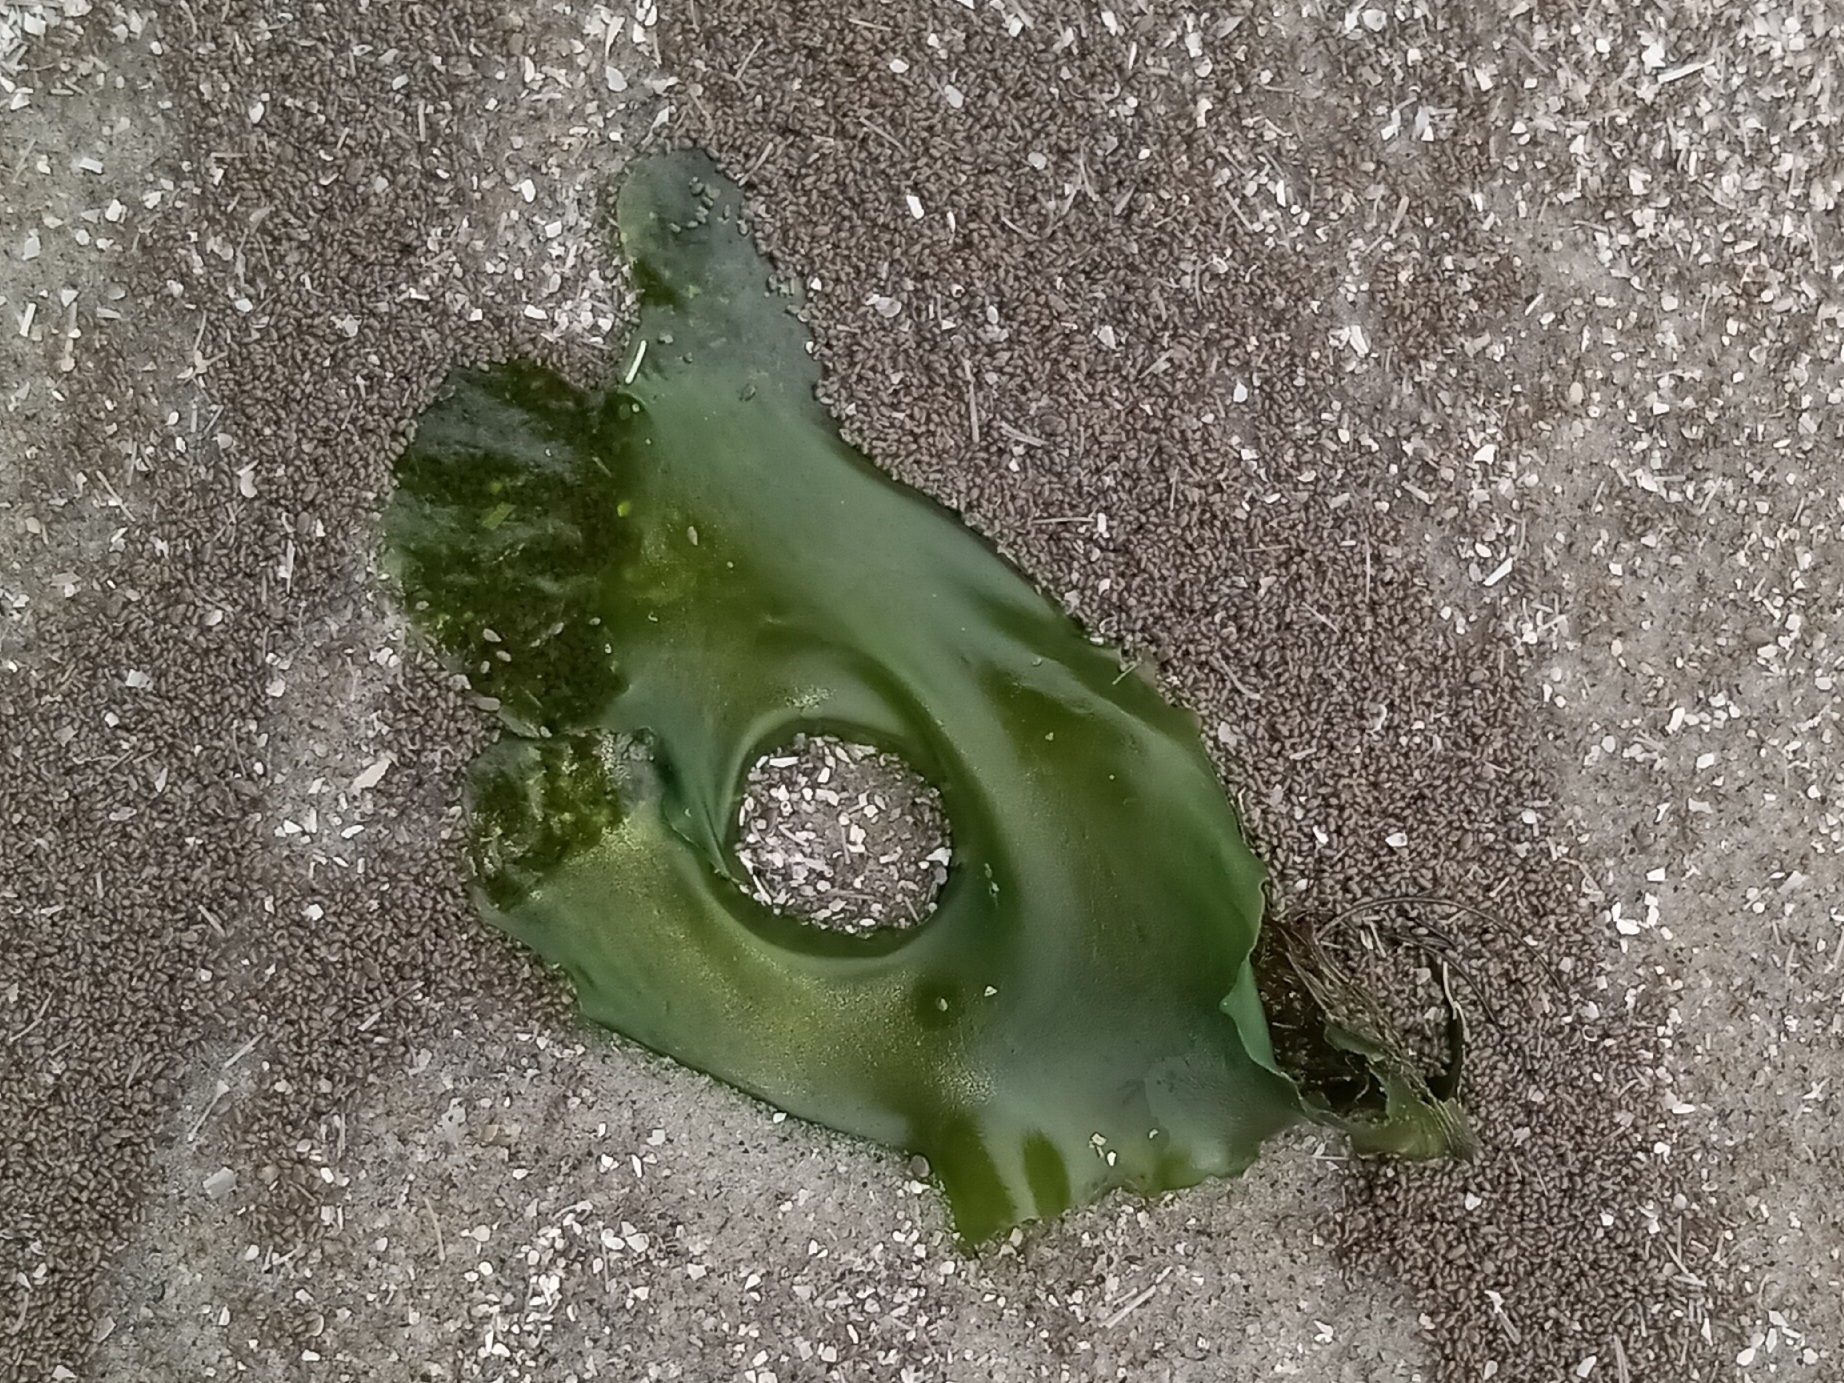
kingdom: Plantae
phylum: Chlorophyta
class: Ulvophyceae
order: Ulvales
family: Ulvaceae
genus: Ulva
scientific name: Ulva lactuca
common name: Sea lettuce
